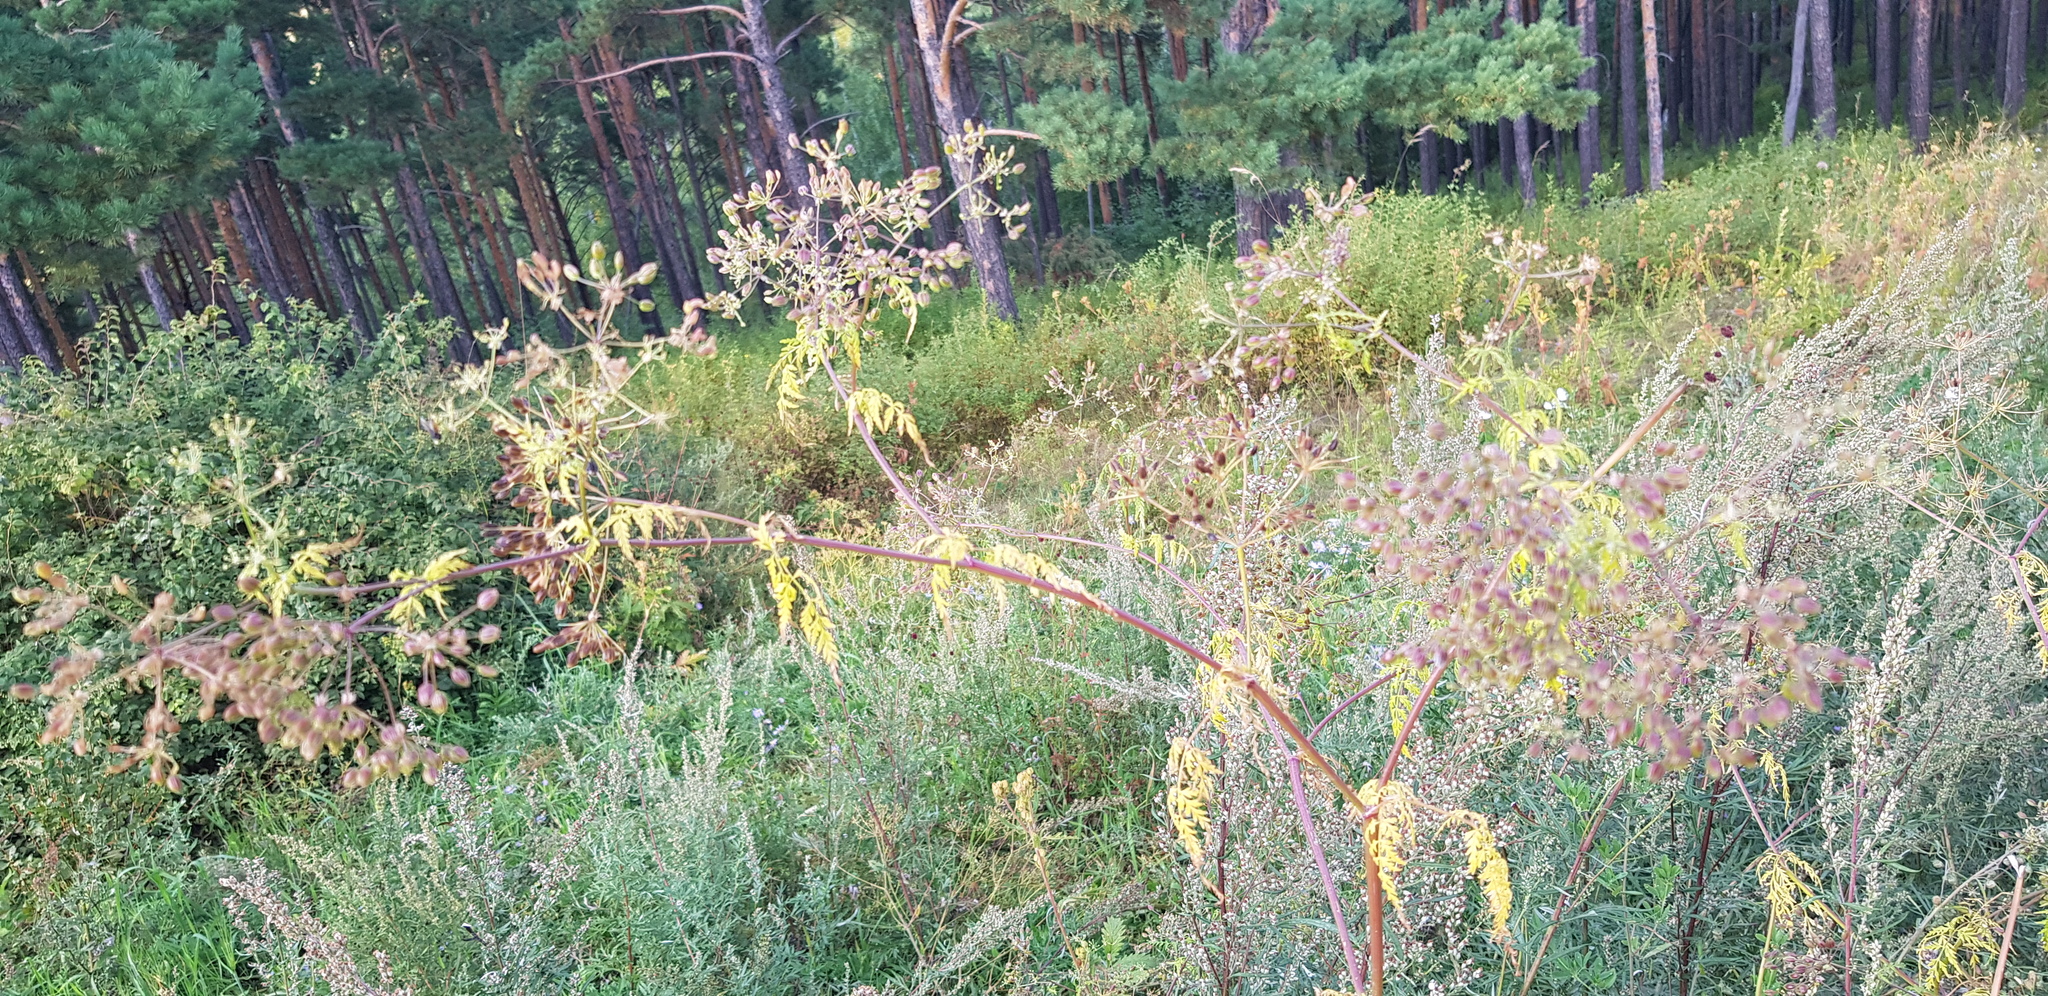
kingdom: Plantae
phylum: Tracheophyta
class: Magnoliopsida
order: Apiales
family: Apiaceae
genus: Sphallerocarpus
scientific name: Sphallerocarpus gracilis
